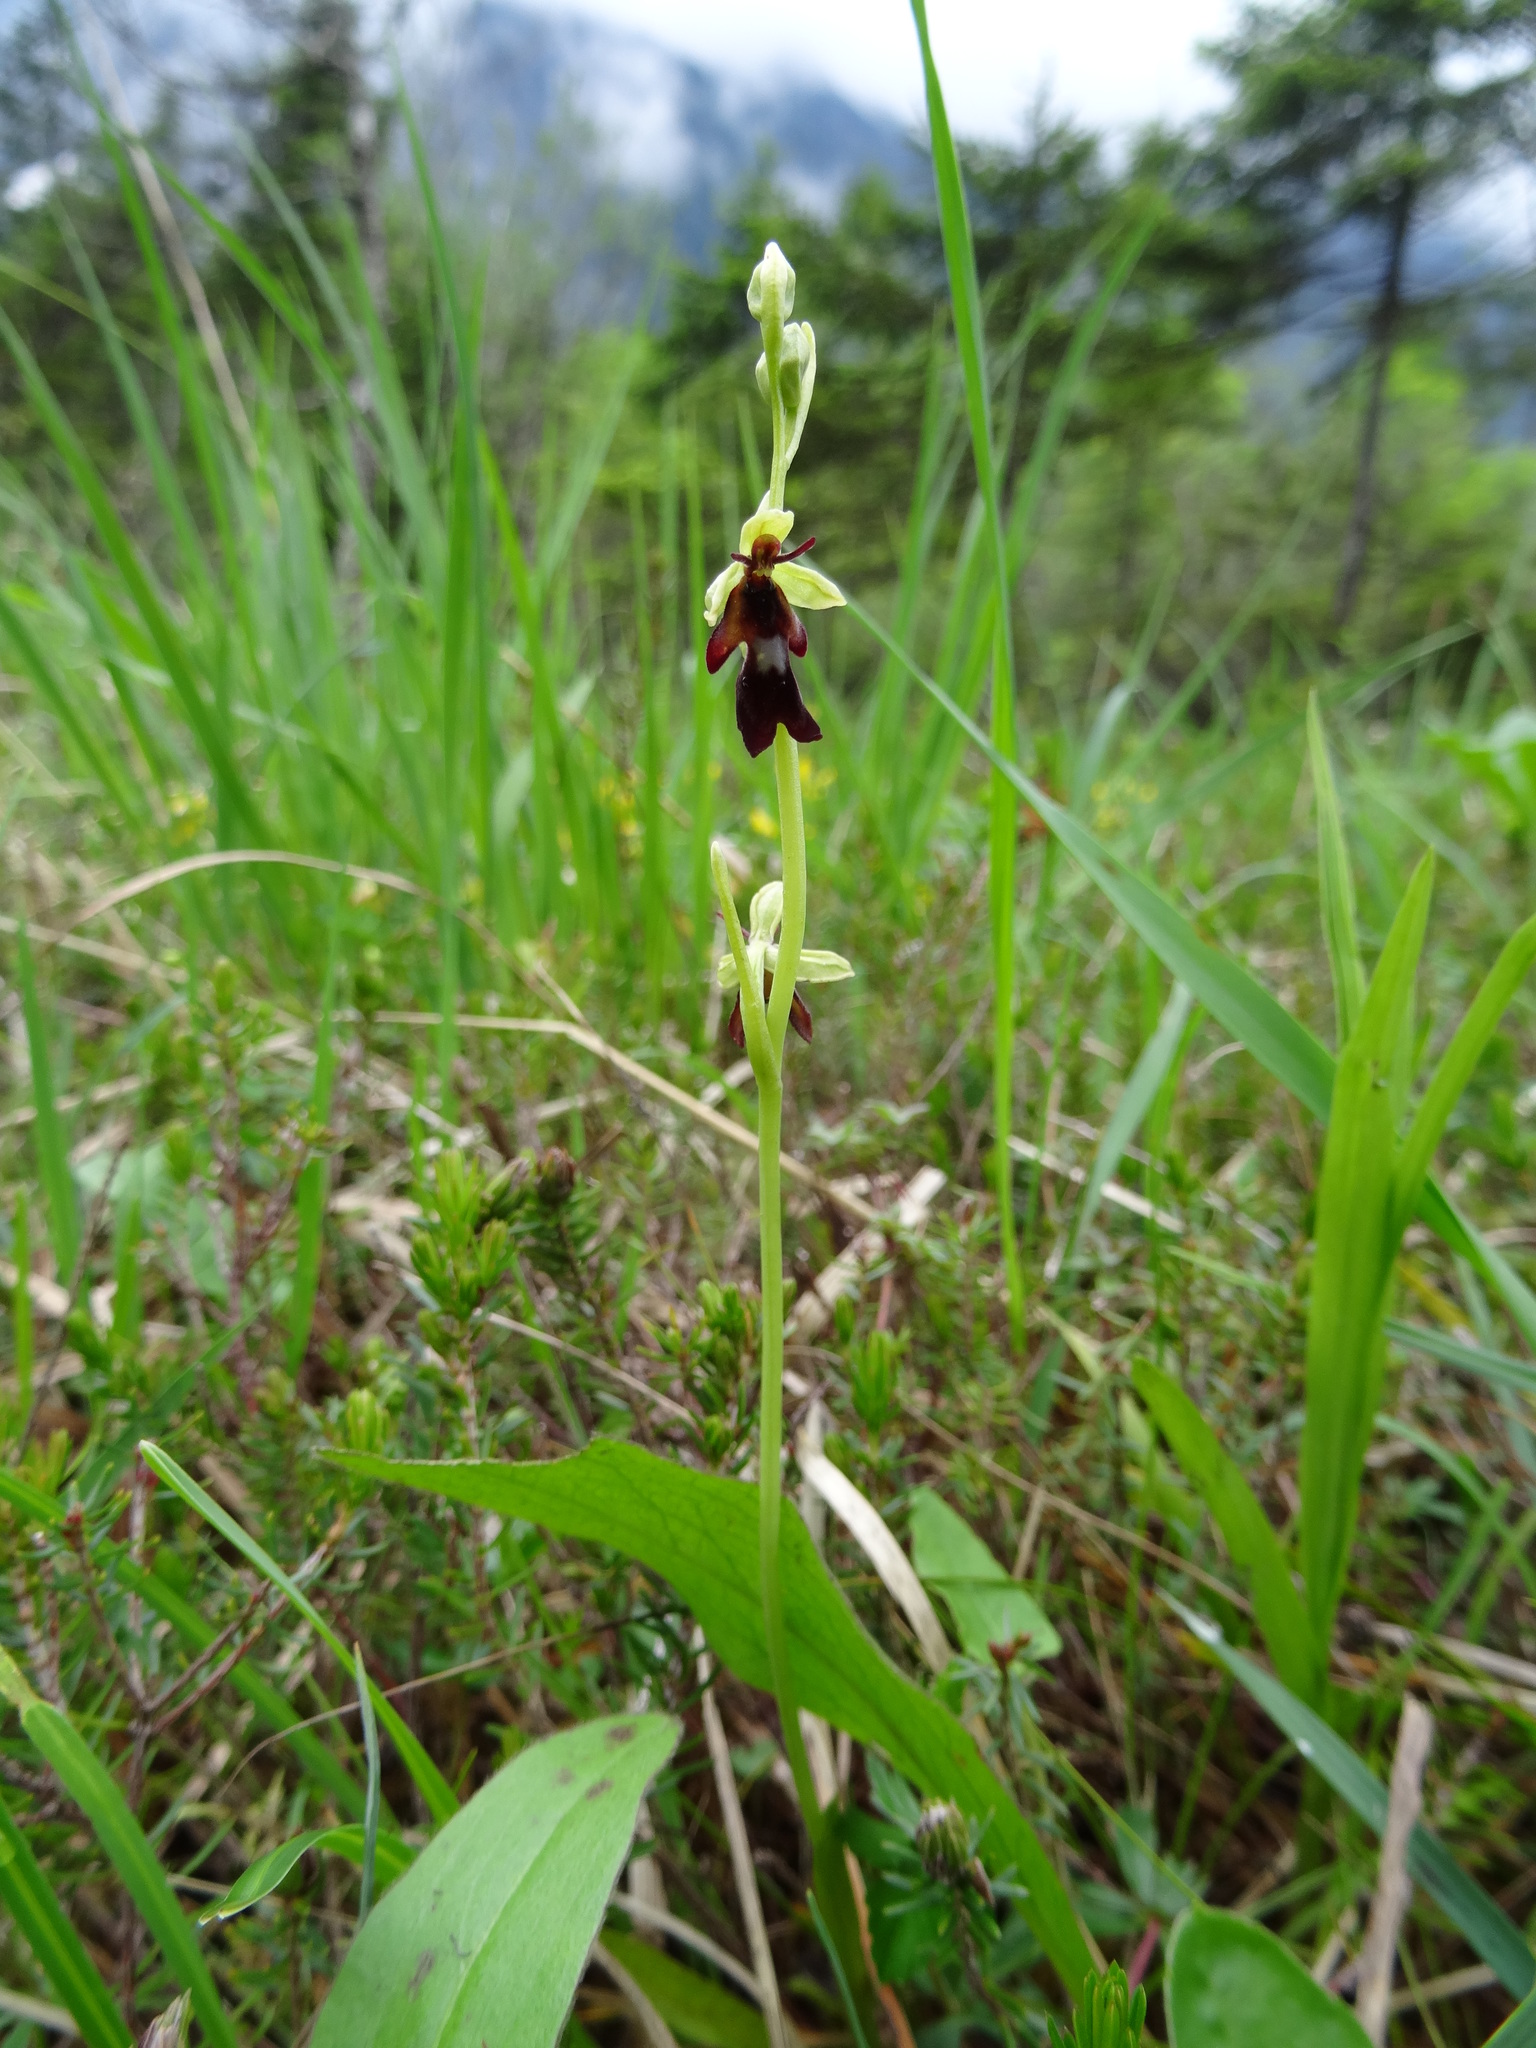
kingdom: Plantae
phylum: Tracheophyta
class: Liliopsida
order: Asparagales
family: Orchidaceae
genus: Ophrys
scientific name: Ophrys insectifera
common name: Fly orchid
